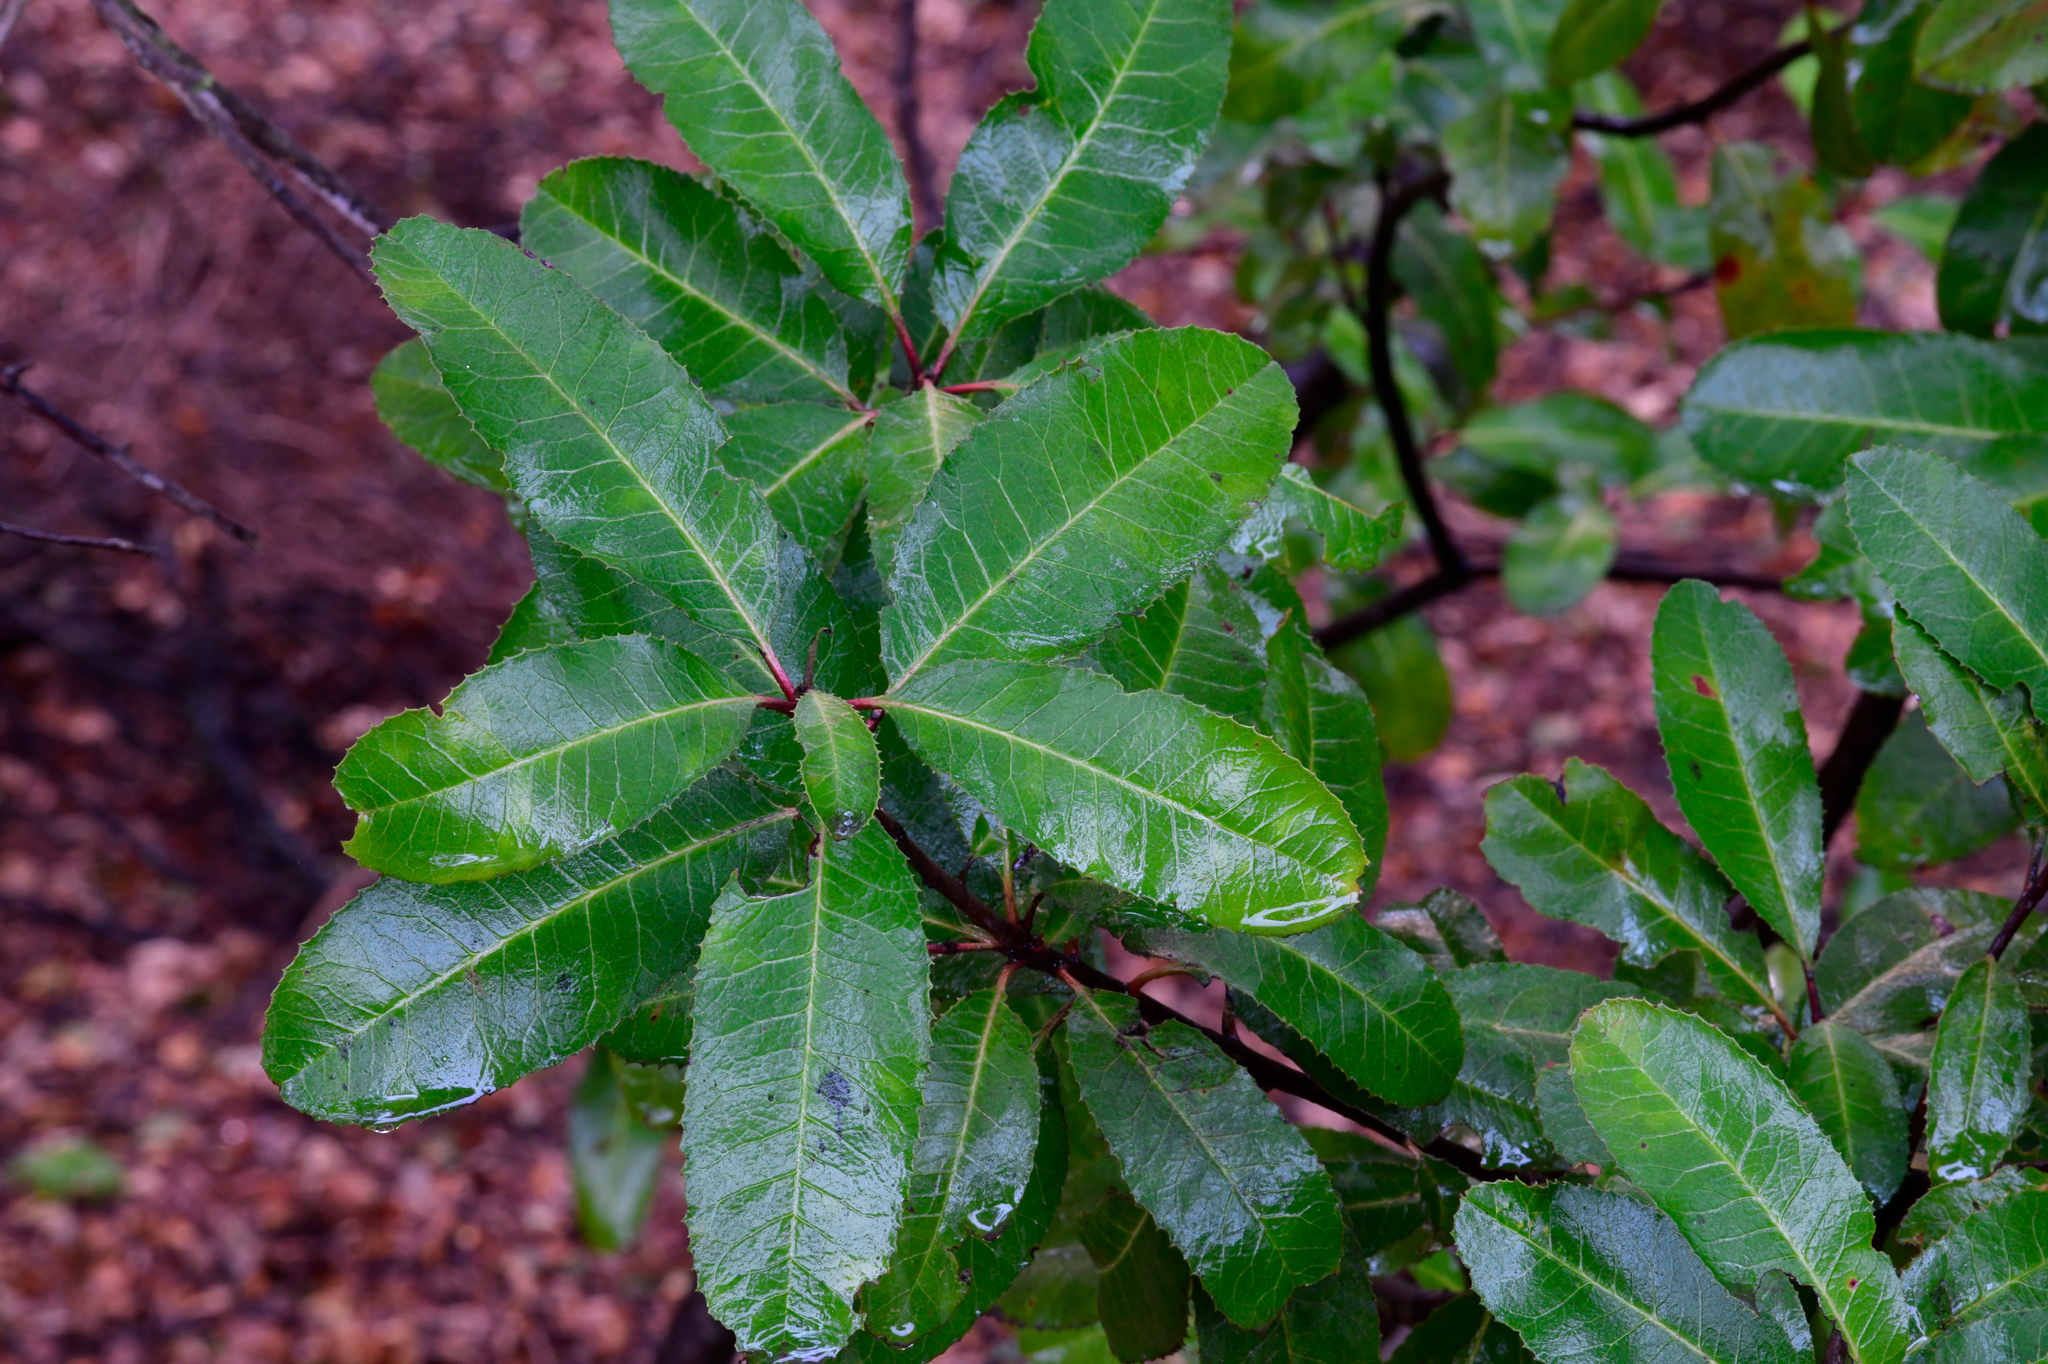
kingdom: Plantae
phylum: Tracheophyta
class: Magnoliopsida
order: Rosales
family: Rosaceae
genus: Heteromeles
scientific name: Heteromeles arbutifolia
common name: California-holly
